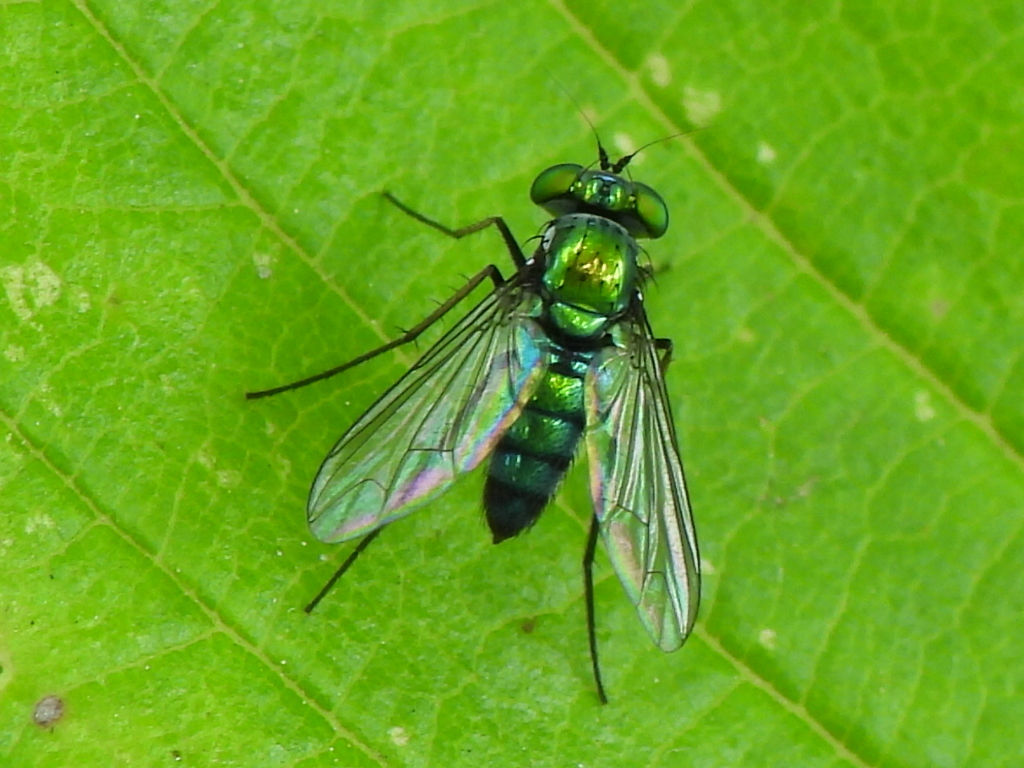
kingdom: Animalia
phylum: Arthropoda
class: Insecta
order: Diptera
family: Dolichopodidae
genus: Condylostylus
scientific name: Condylostylus longicornis
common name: Long-legged fly
